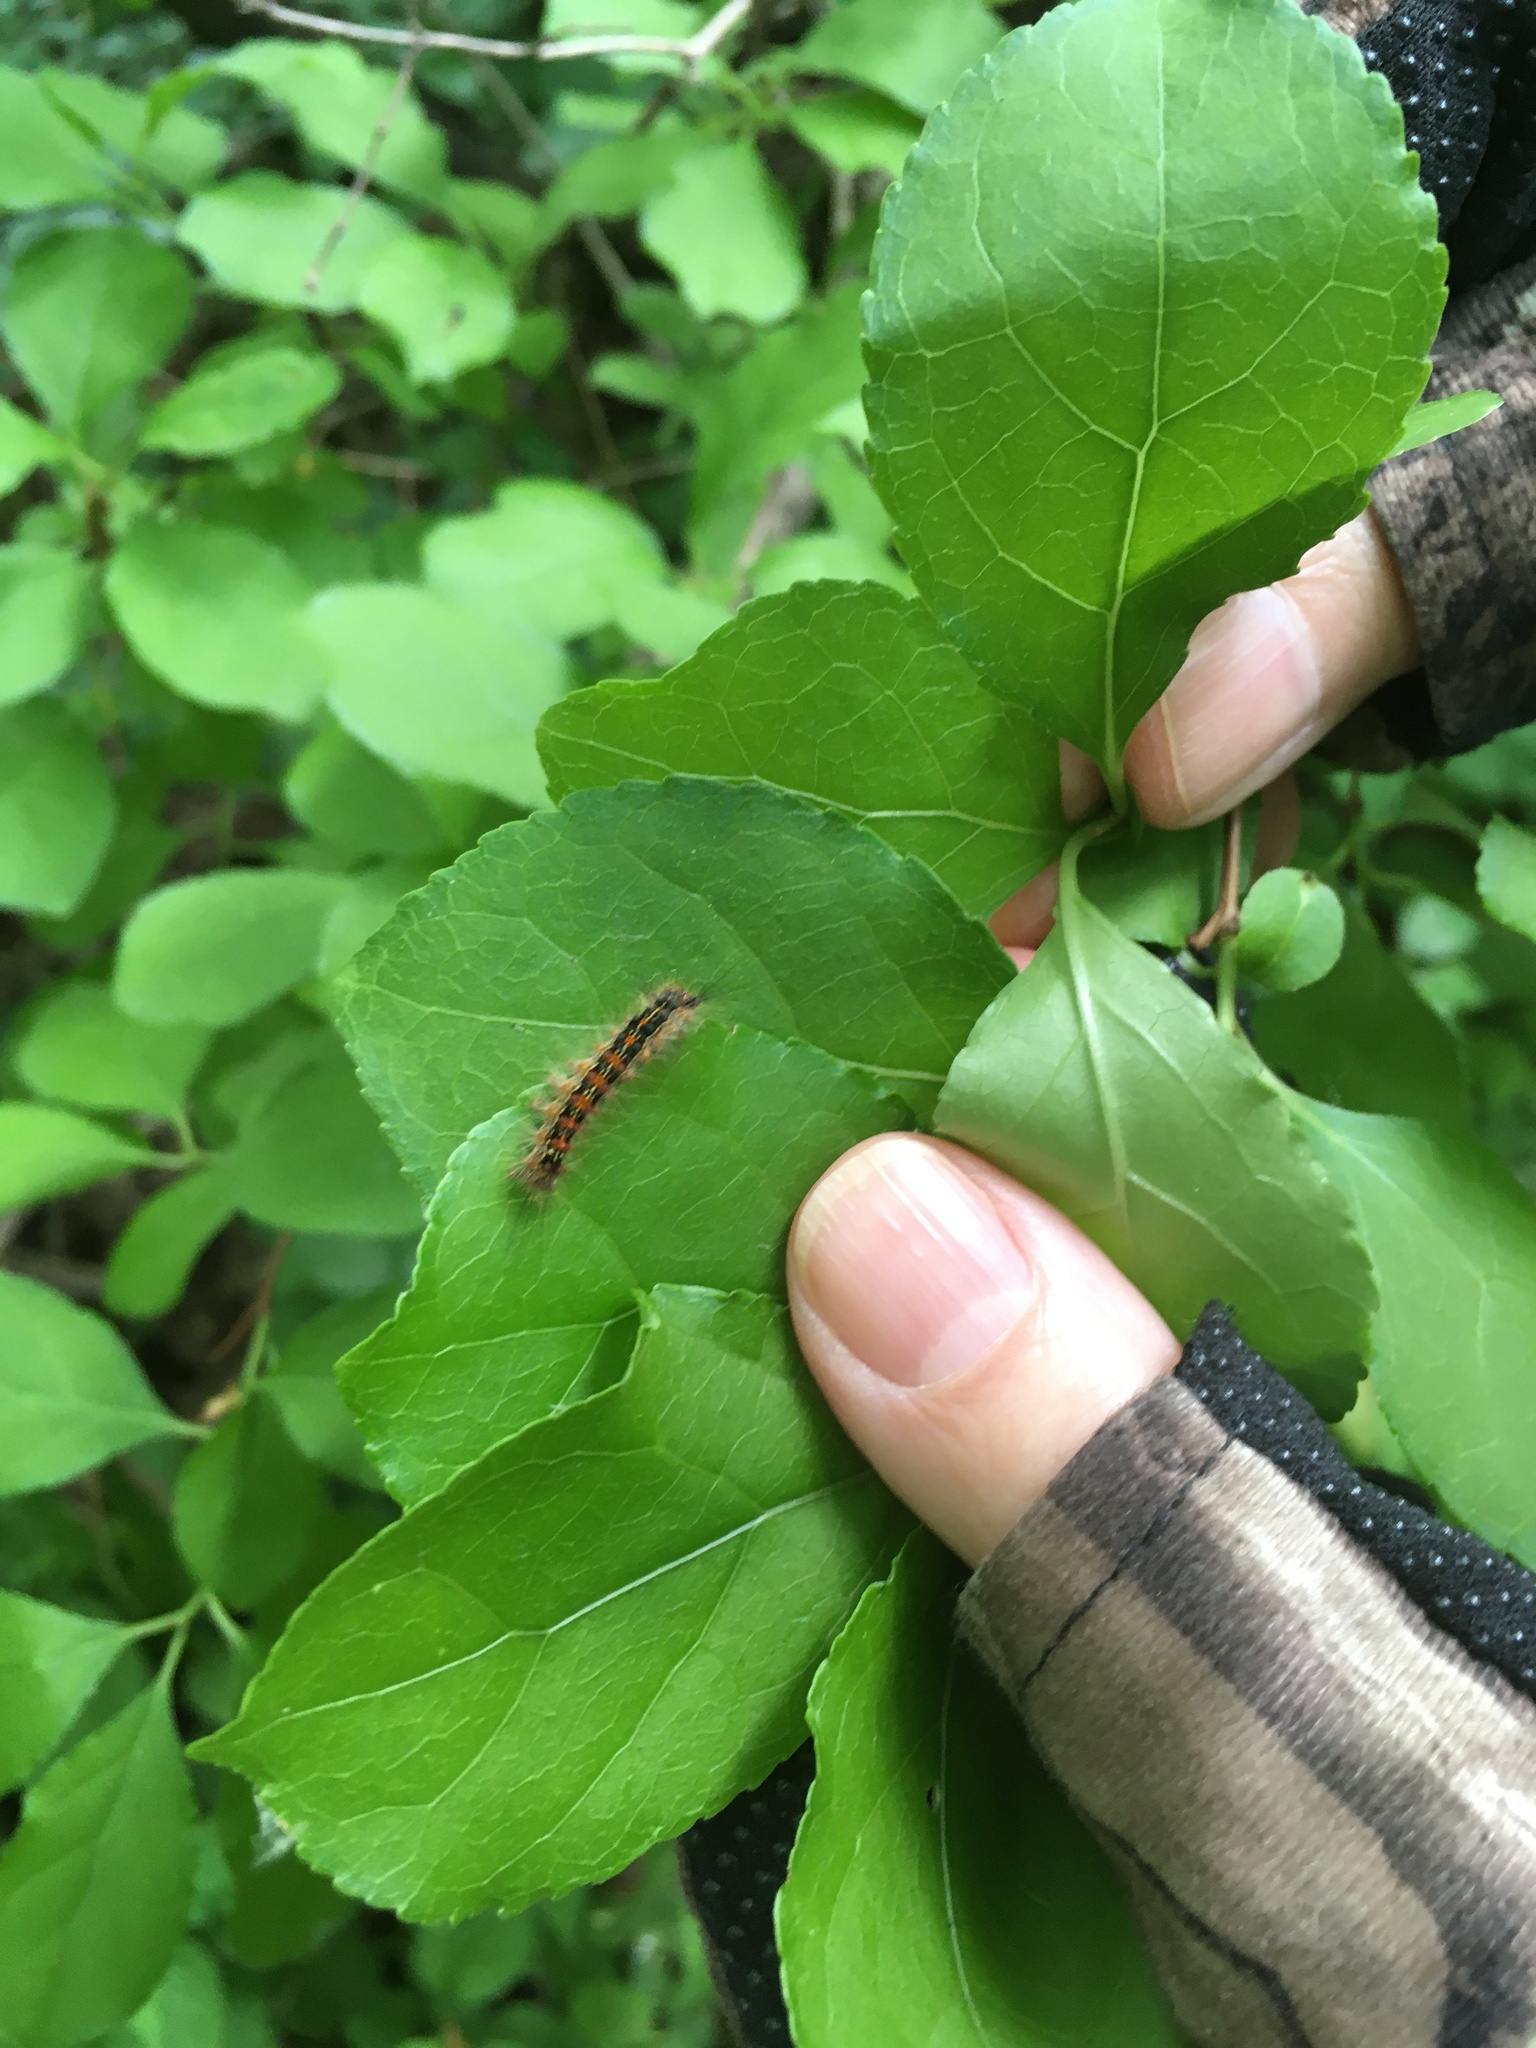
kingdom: Animalia
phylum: Arthropoda
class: Insecta
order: Lepidoptera
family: Erebidae
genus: Lymantria
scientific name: Lymantria dispar
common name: Gypsy moth
